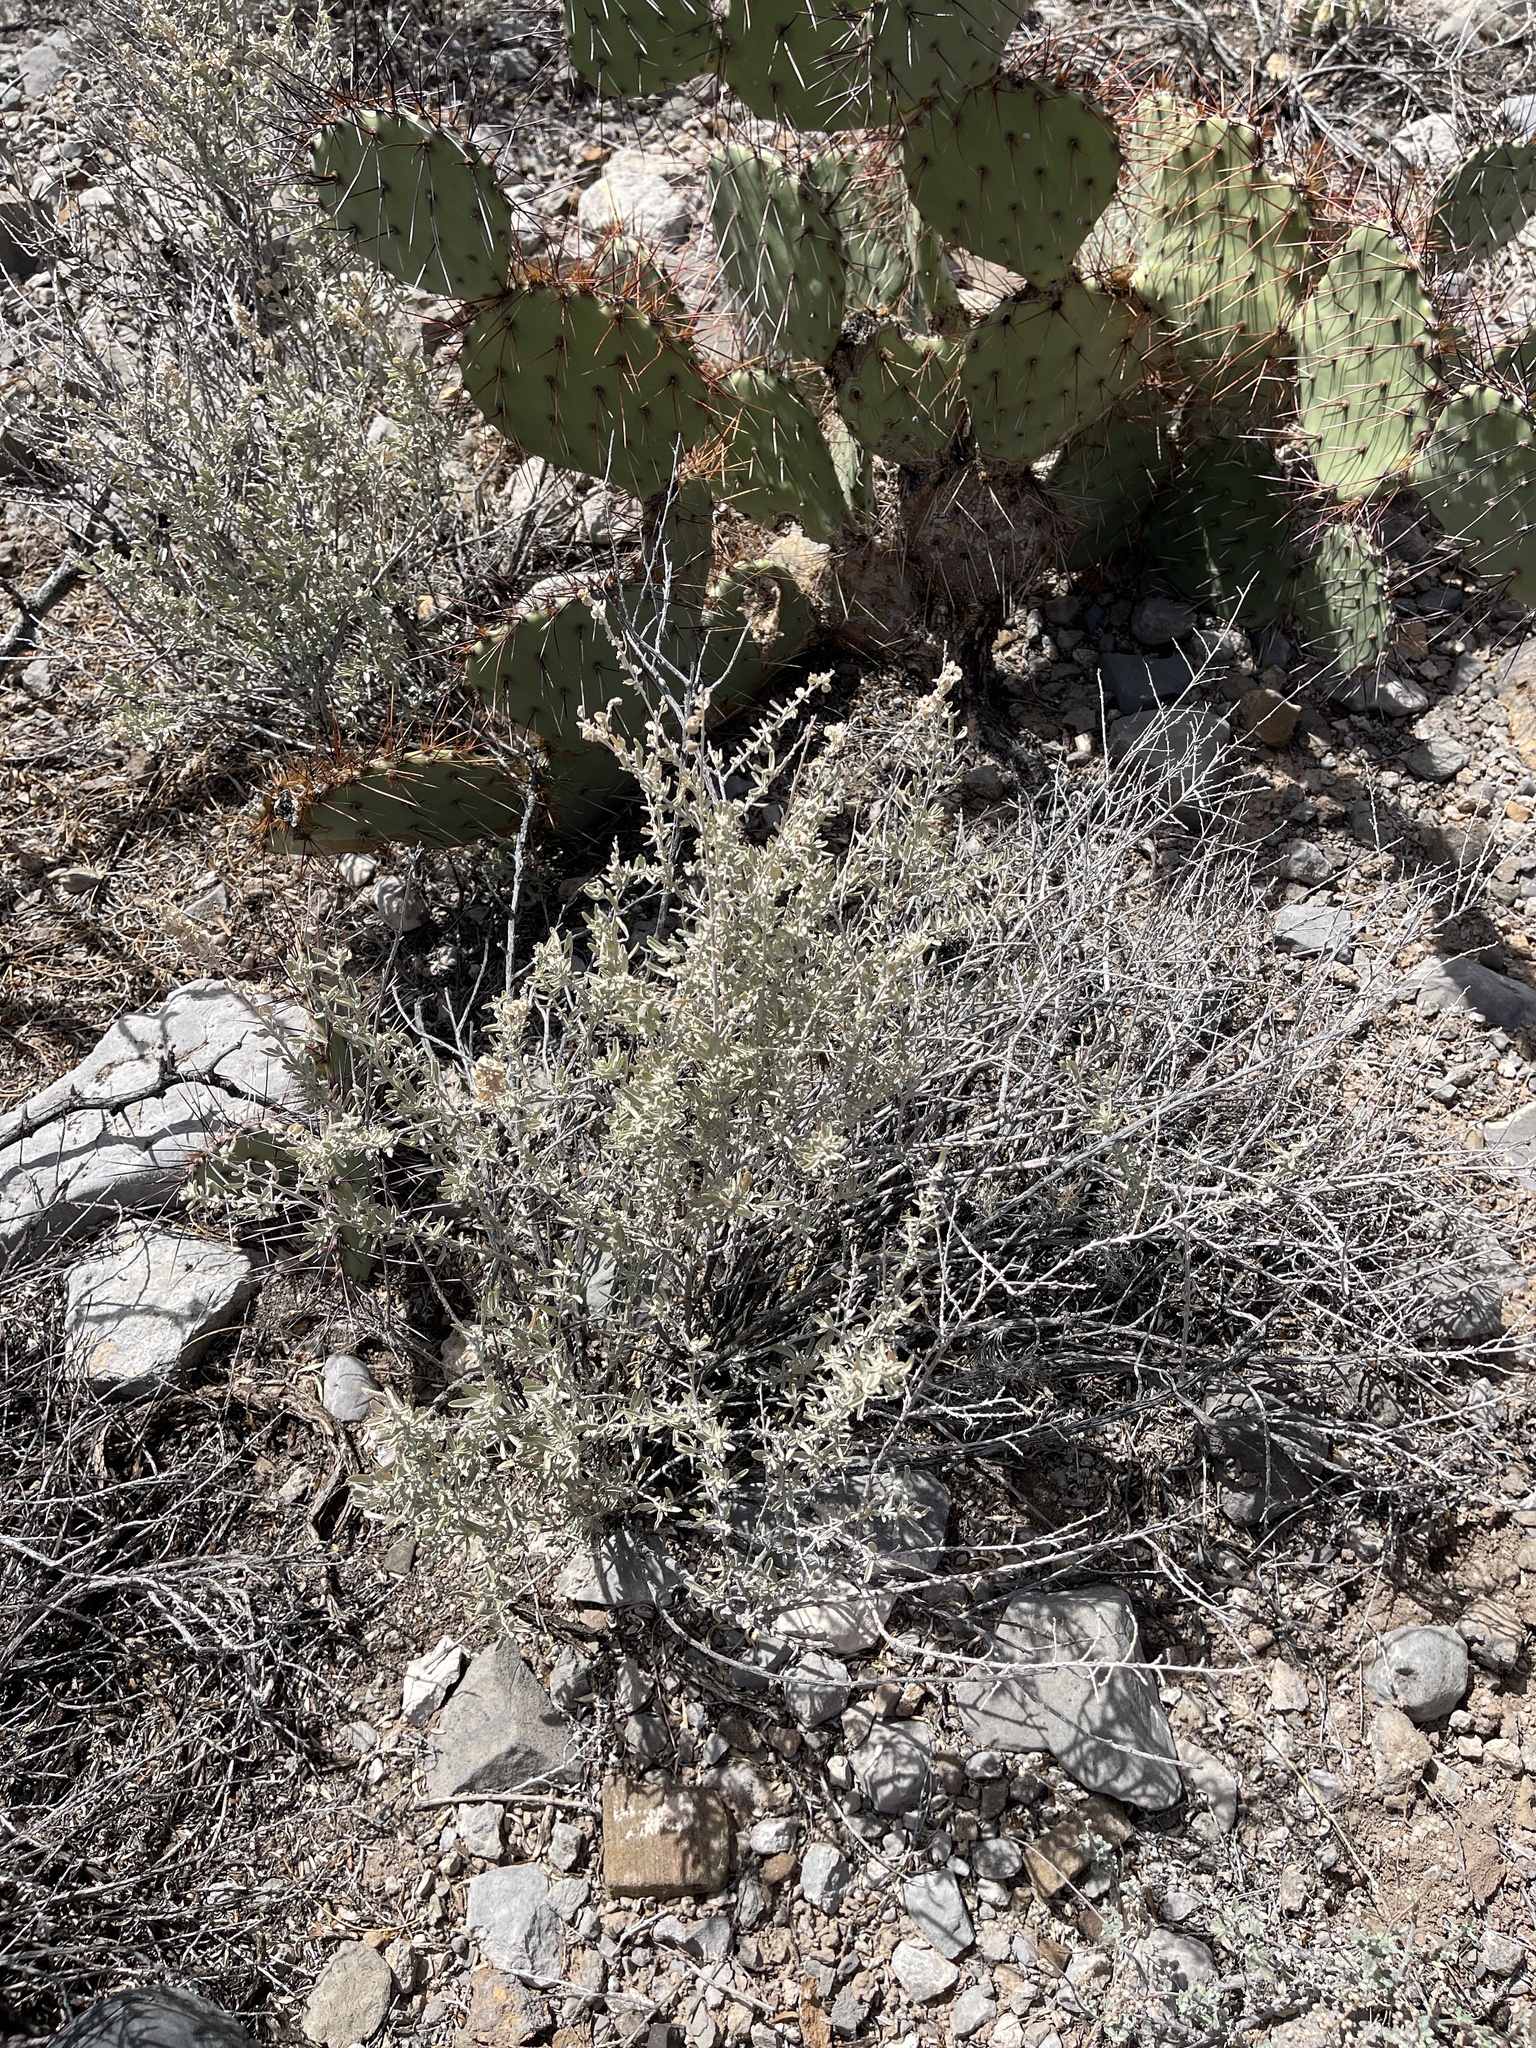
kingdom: Plantae
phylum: Tracheophyta
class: Magnoliopsida
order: Caryophyllales
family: Amaranthaceae
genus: Atriplex
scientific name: Atriplex canescens
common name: Four-wing saltbush
